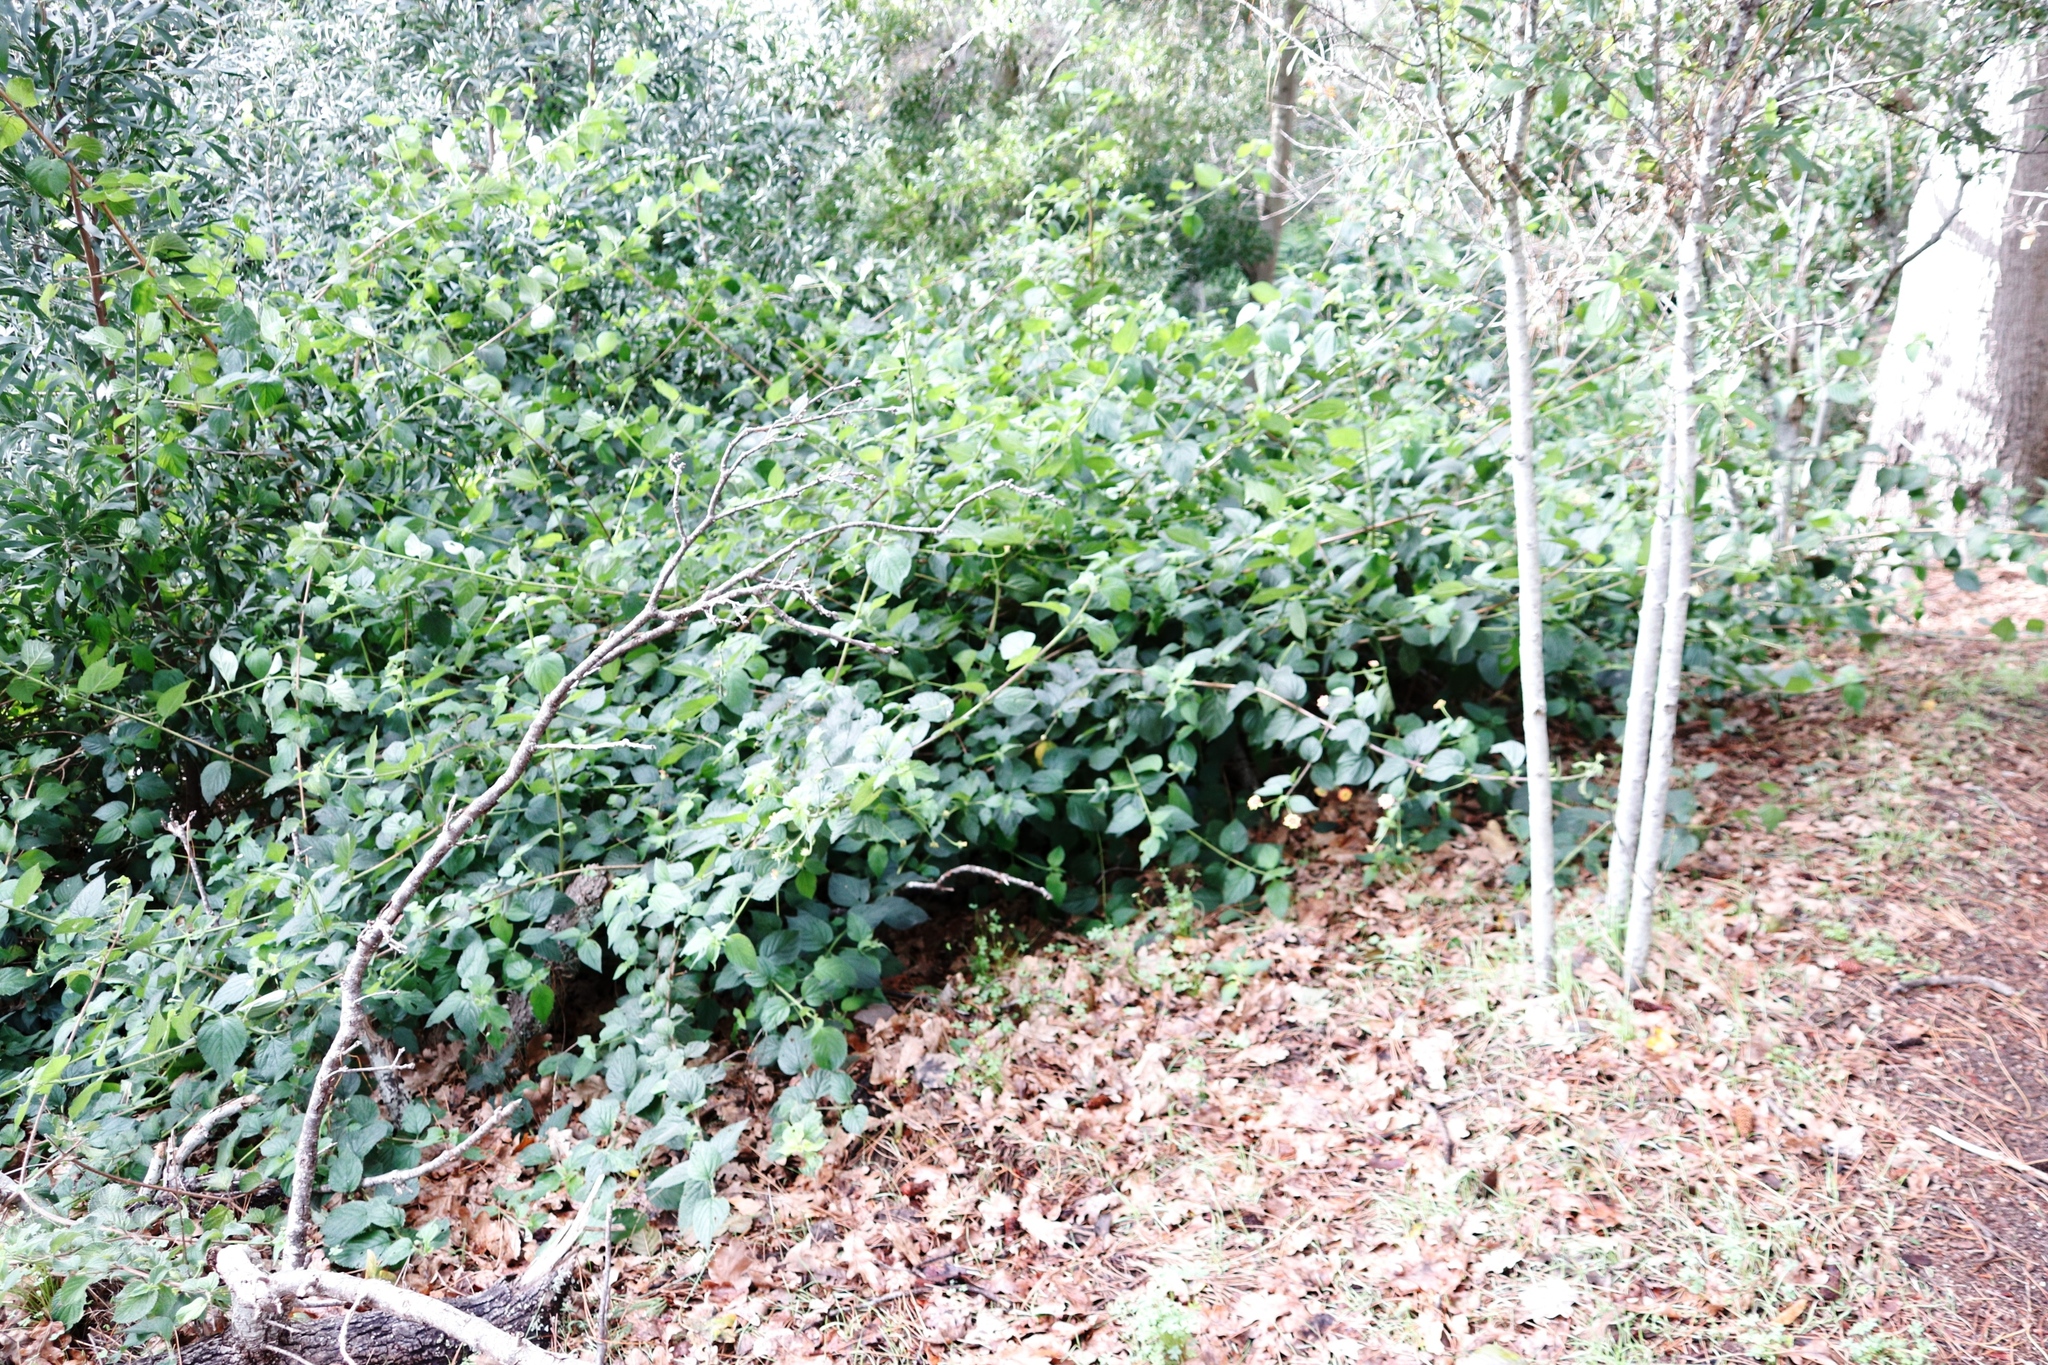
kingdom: Plantae
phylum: Tracheophyta
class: Magnoliopsida
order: Lamiales
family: Verbenaceae
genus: Lantana
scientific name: Lantana camara
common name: Lantana
